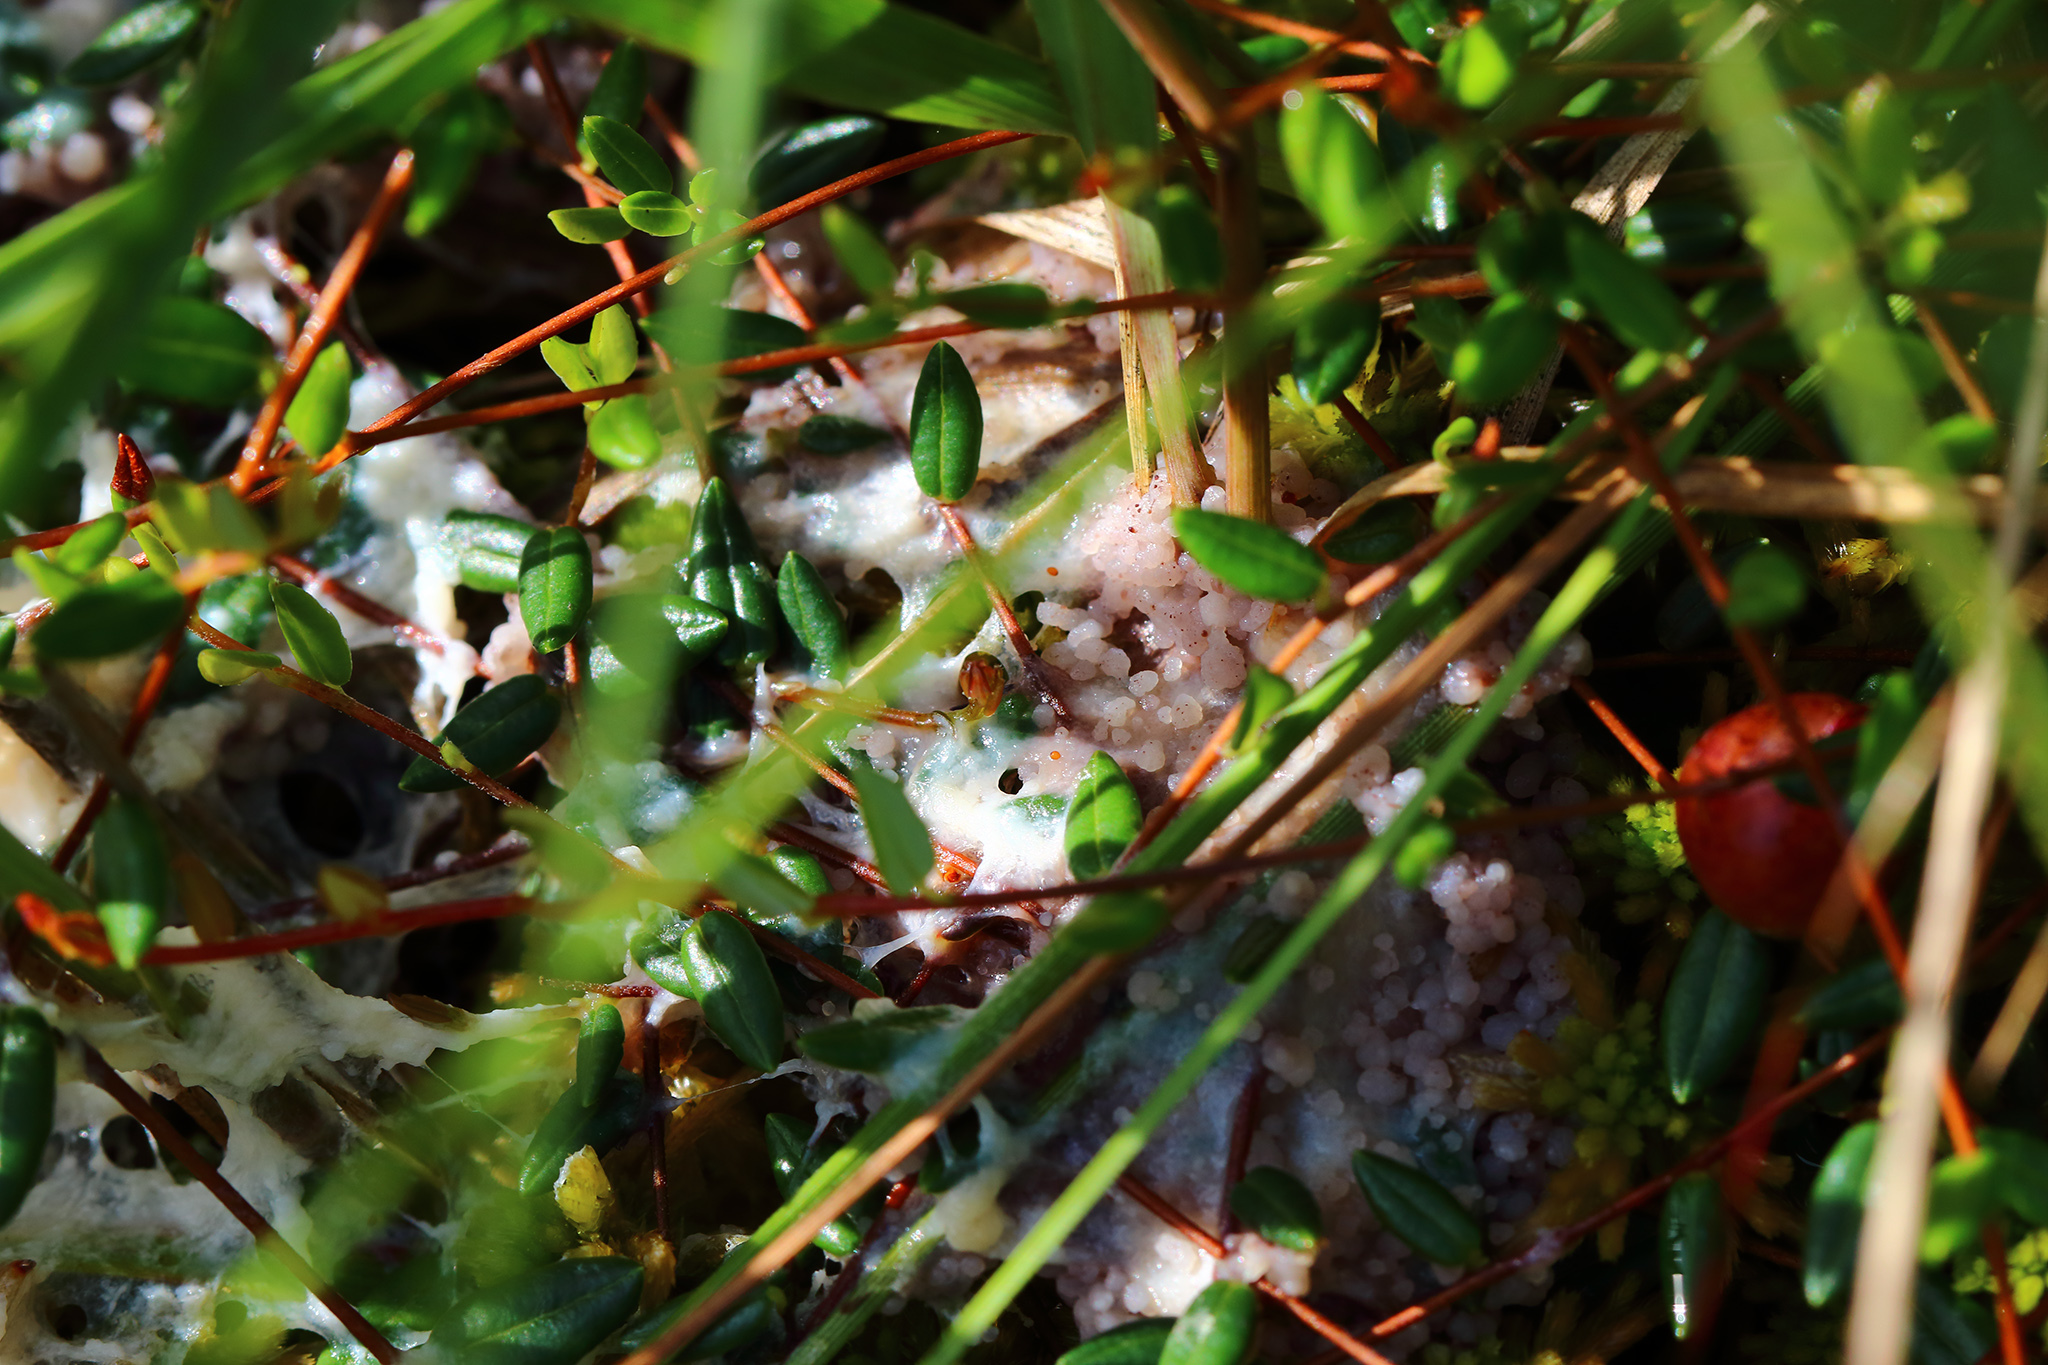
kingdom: Fungi
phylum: Basidiomycota
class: Agaricomycetes
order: Sebacinales
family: Sebacinaceae
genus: Sebacina
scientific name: Sebacina incrustans
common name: Enveloping crust
